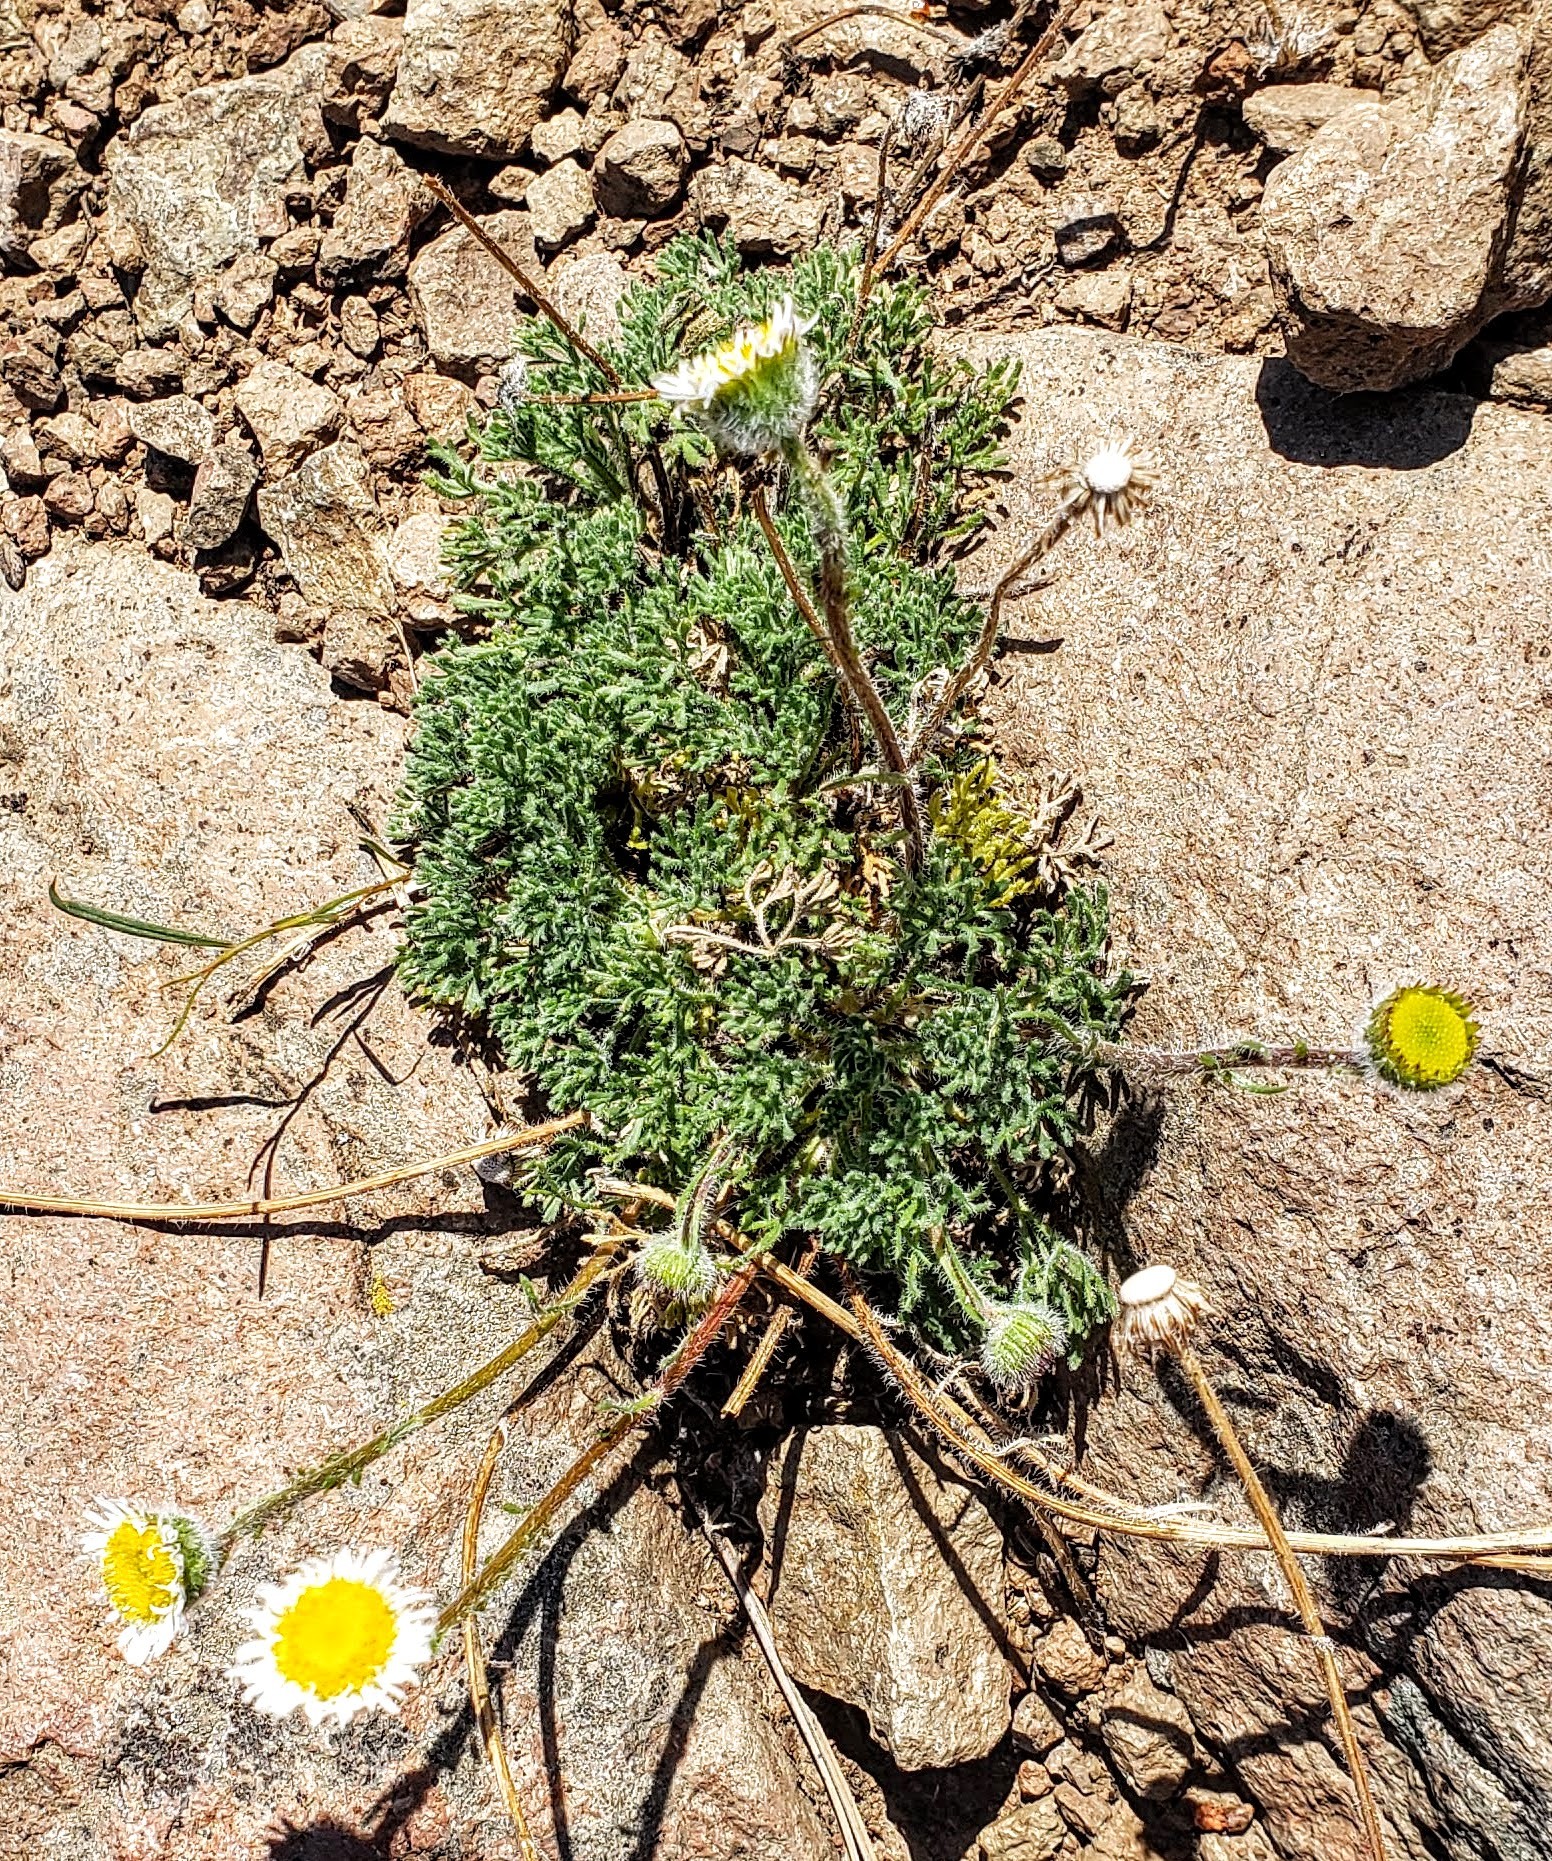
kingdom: Plantae
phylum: Tracheophyta
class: Magnoliopsida
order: Asterales
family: Asteraceae
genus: Erigeron
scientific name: Erigeron compositus
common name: Dwarf mountain fleabane
